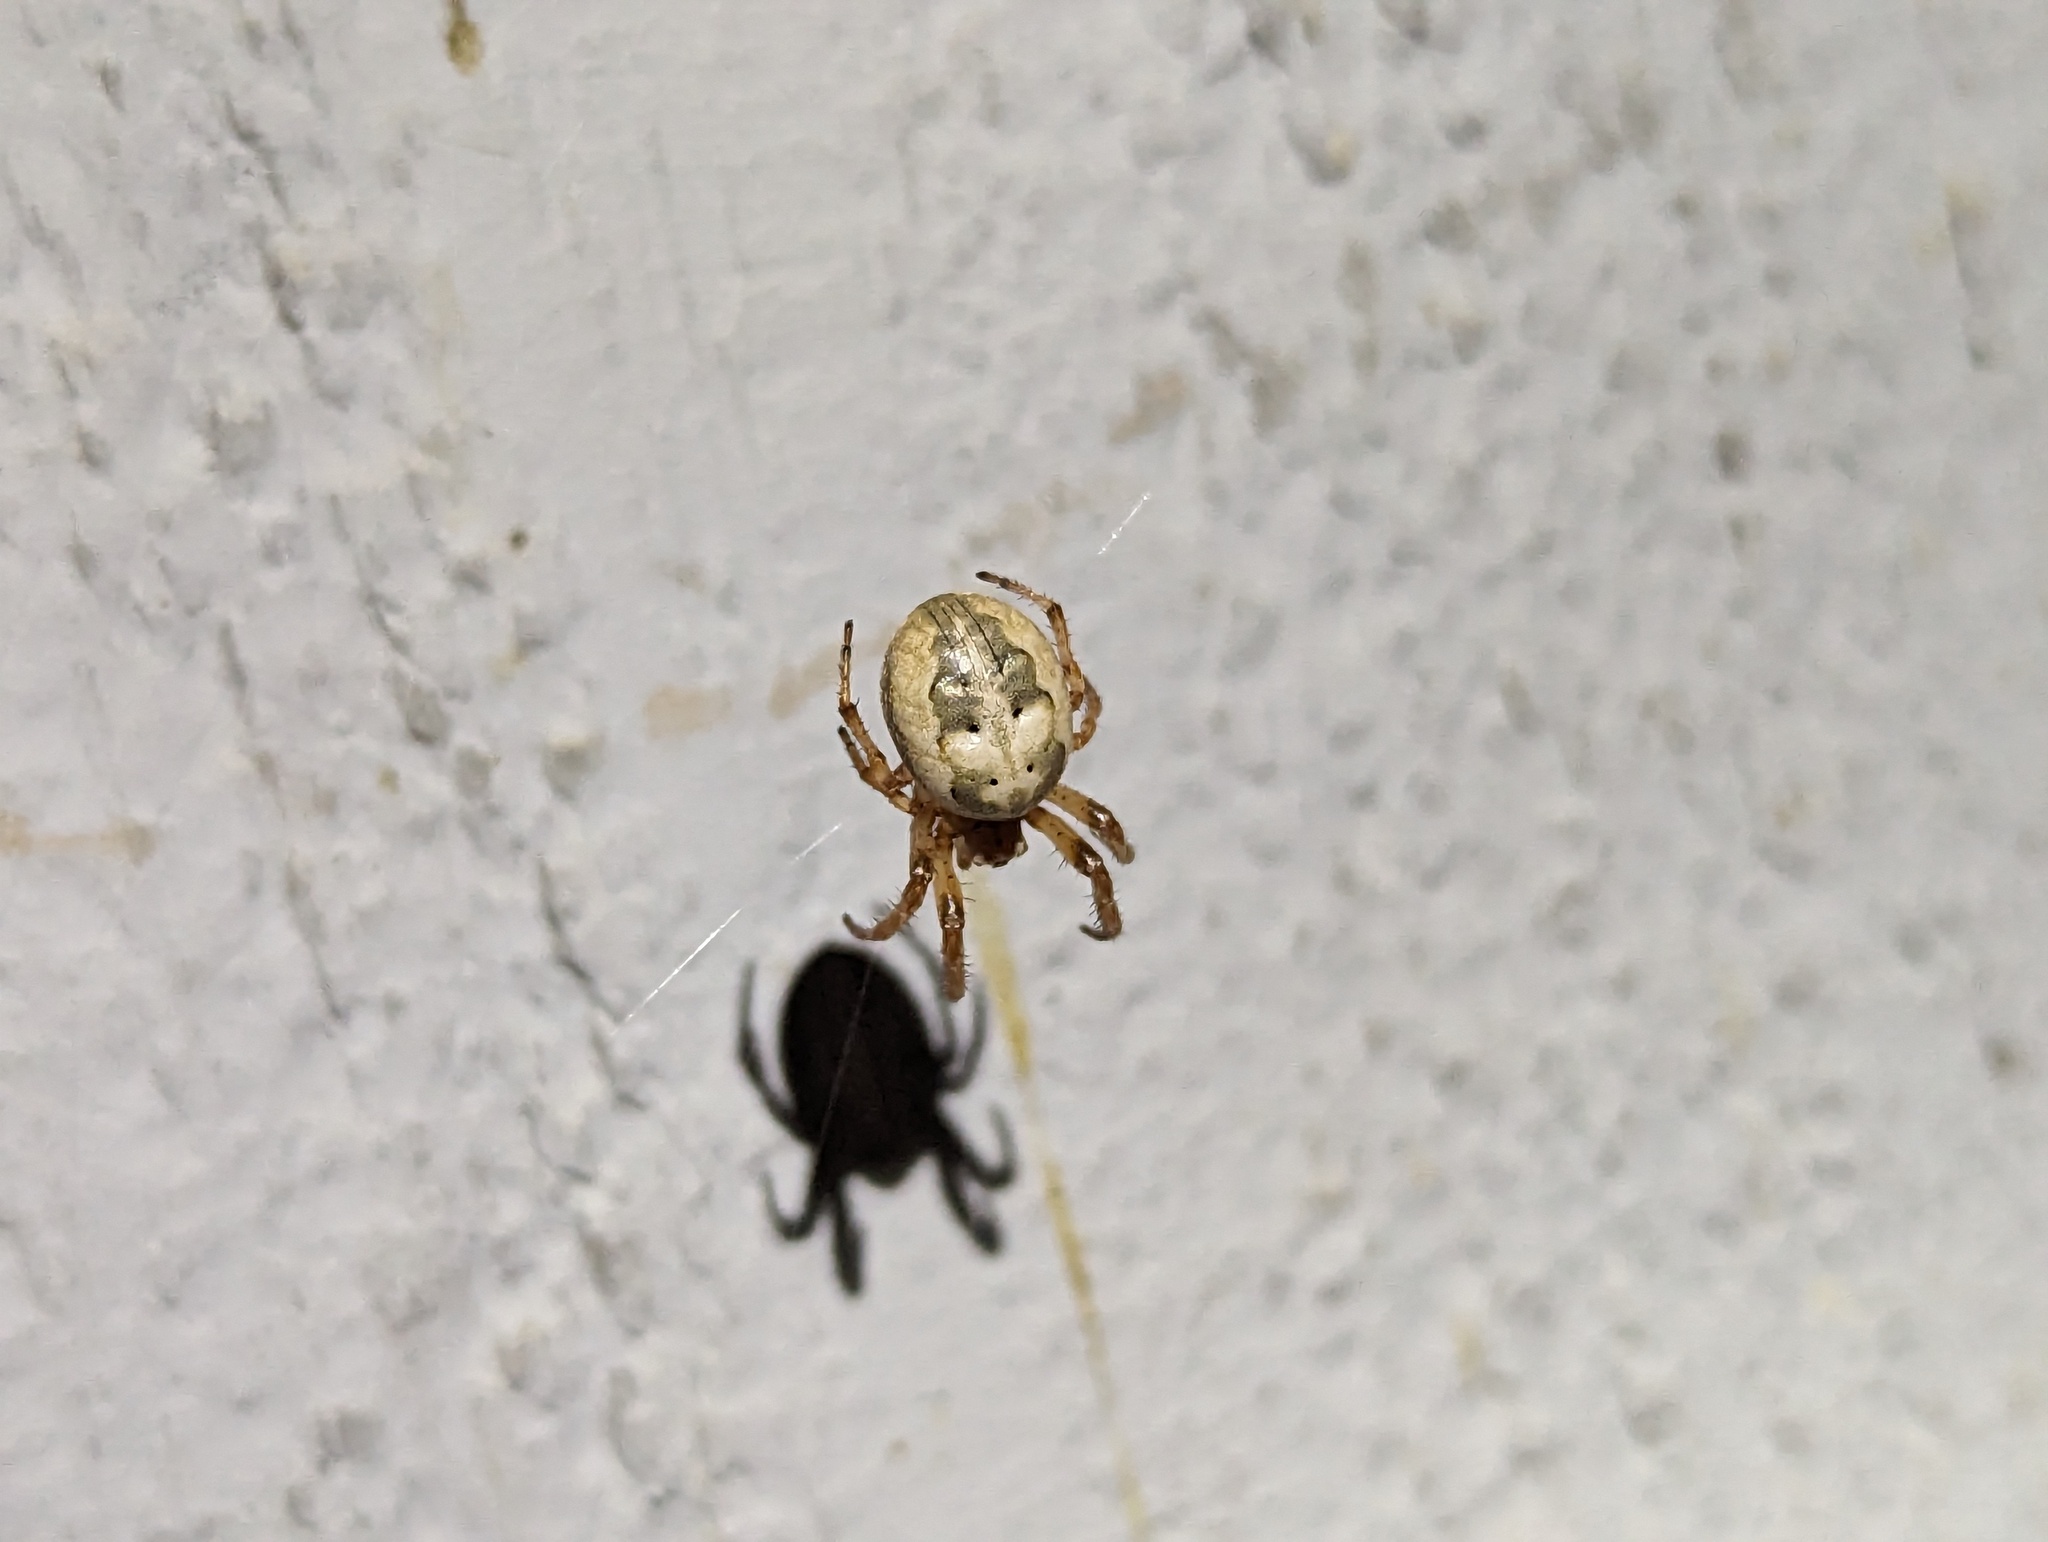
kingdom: Animalia
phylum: Arthropoda
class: Arachnida
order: Araneae
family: Araneidae
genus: Larinioides
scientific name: Larinioides cornutus
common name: Furrow orbweaver
